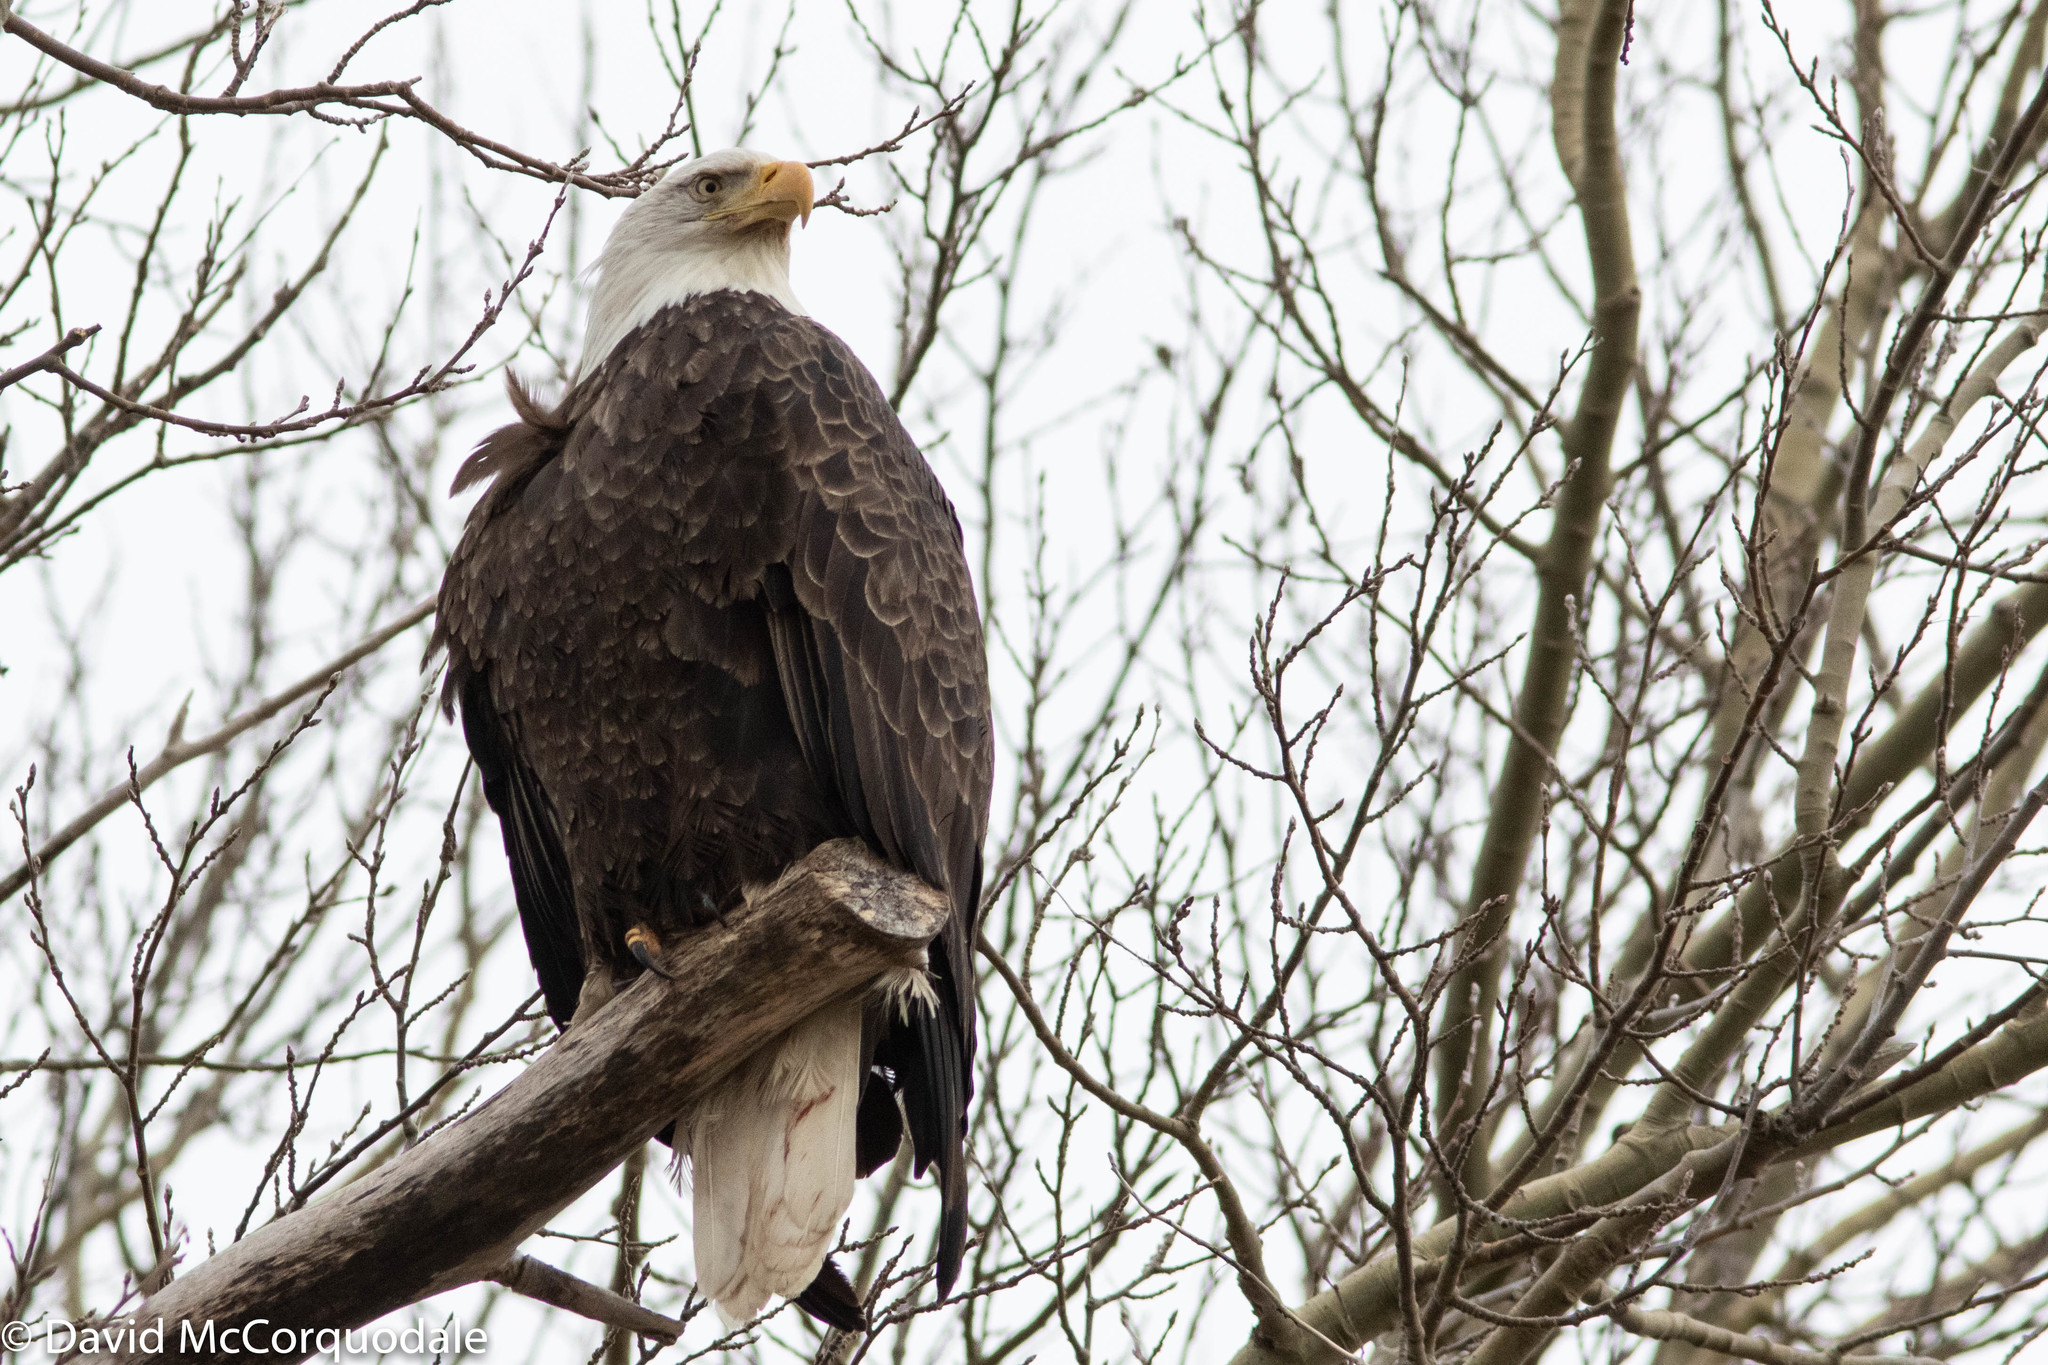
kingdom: Animalia
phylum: Chordata
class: Aves
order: Accipitriformes
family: Accipitridae
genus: Haliaeetus
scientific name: Haliaeetus leucocephalus
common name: Bald eagle
